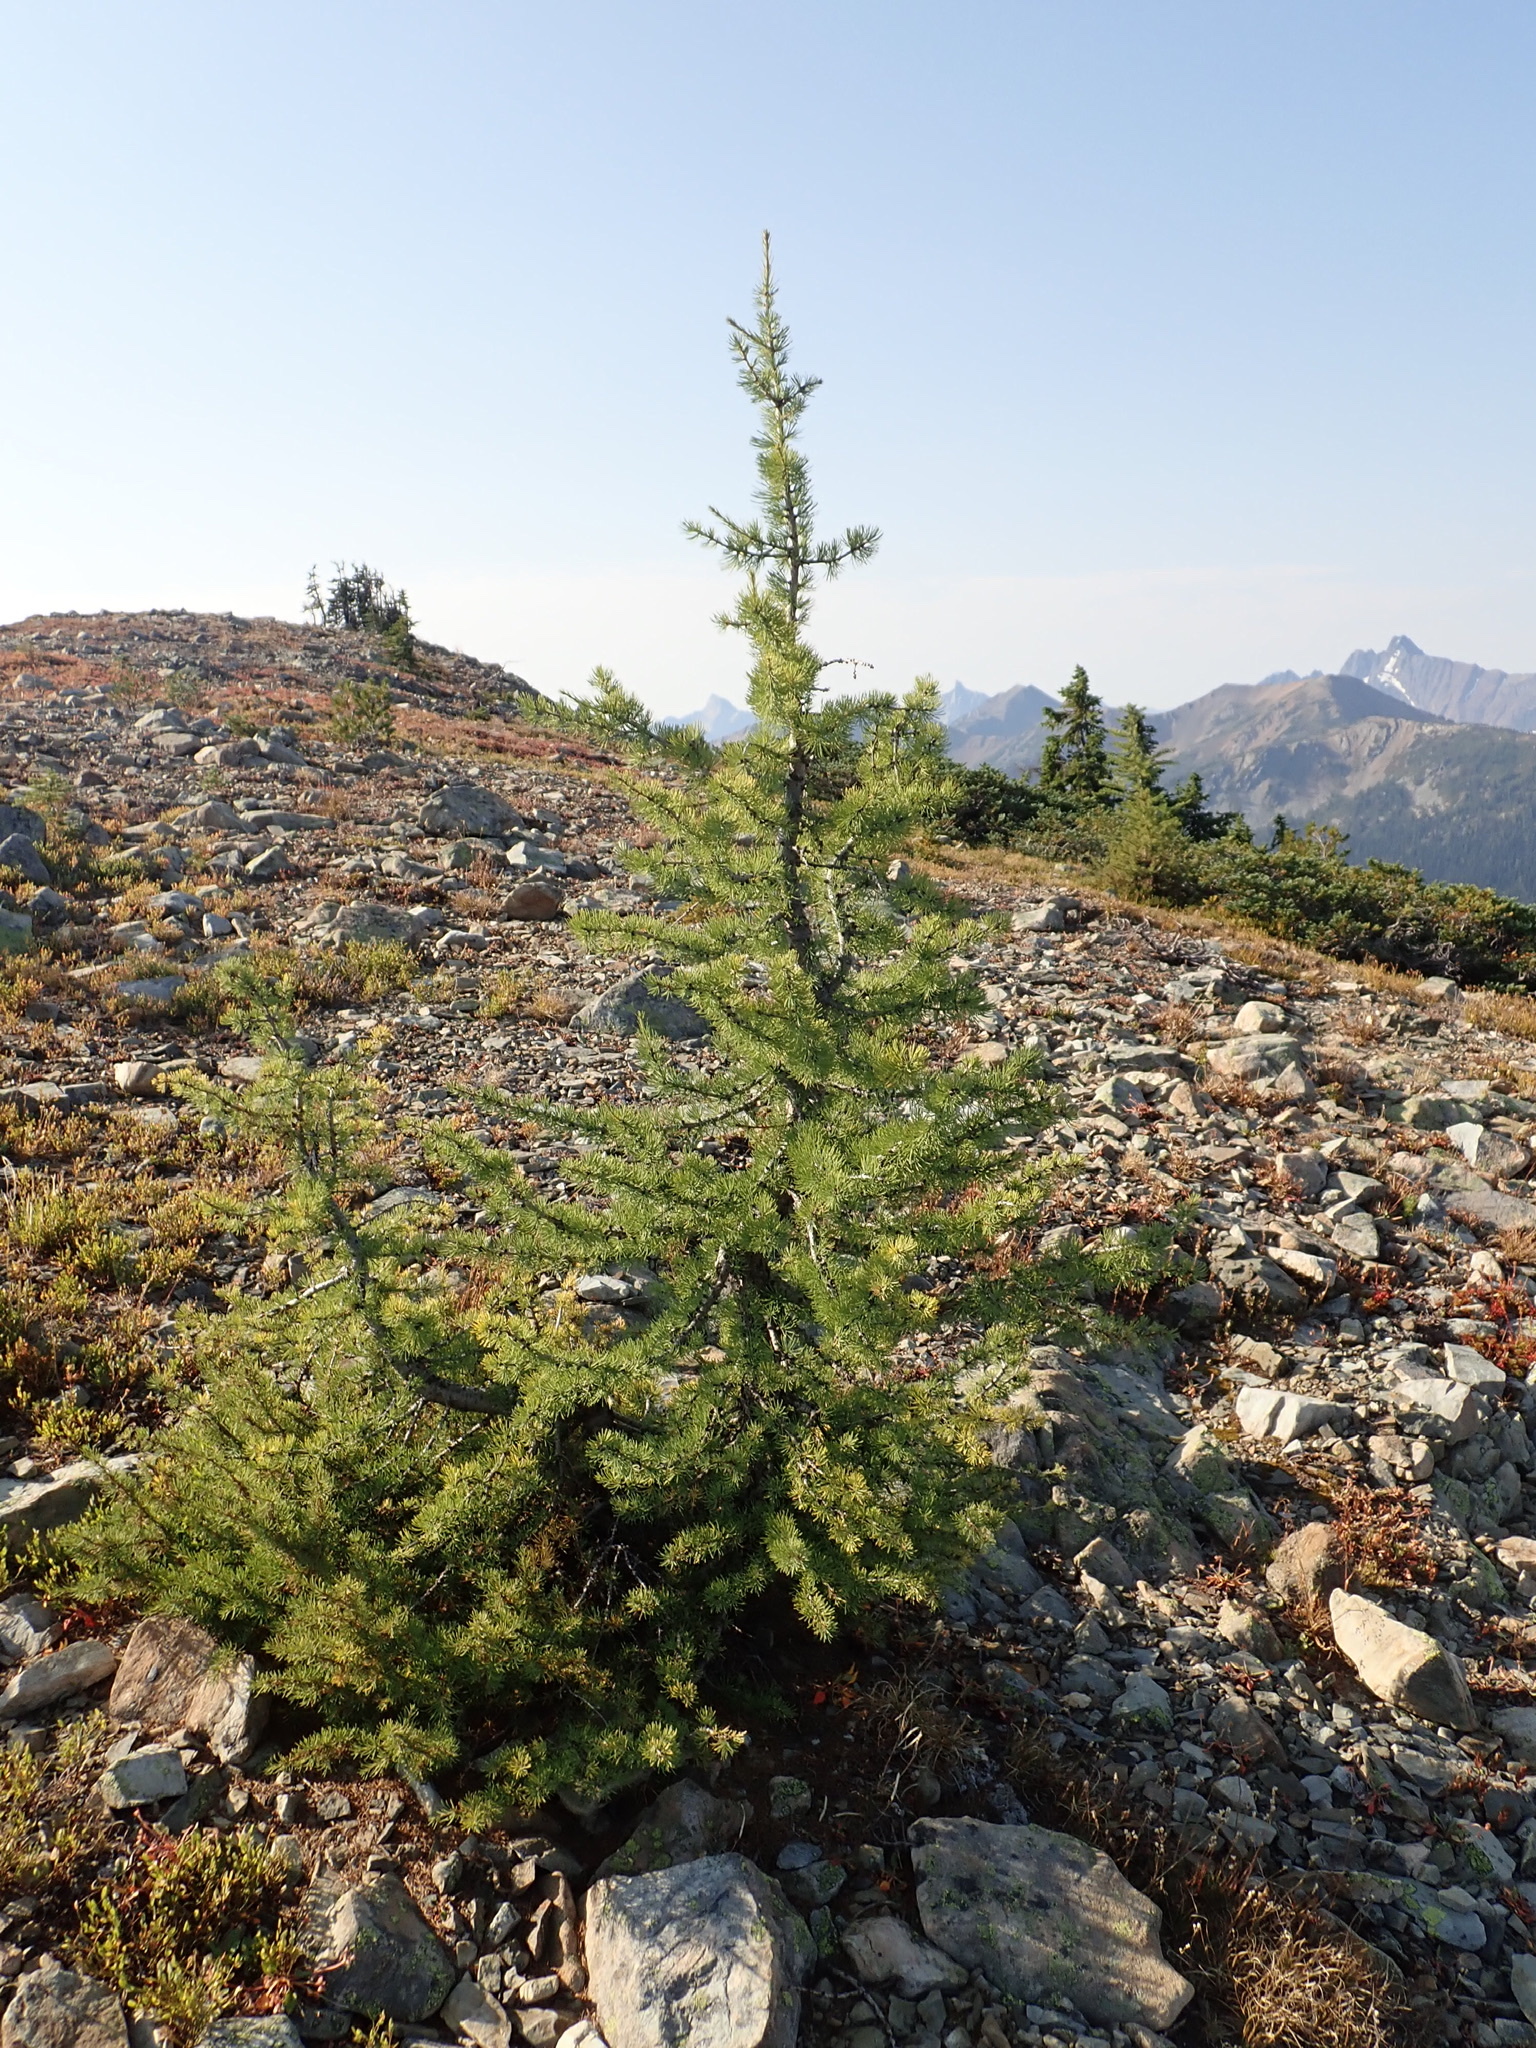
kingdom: Plantae
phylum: Tracheophyta
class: Pinopsida
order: Pinales
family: Pinaceae
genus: Larix
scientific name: Larix lyallii
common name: Alpine larch
